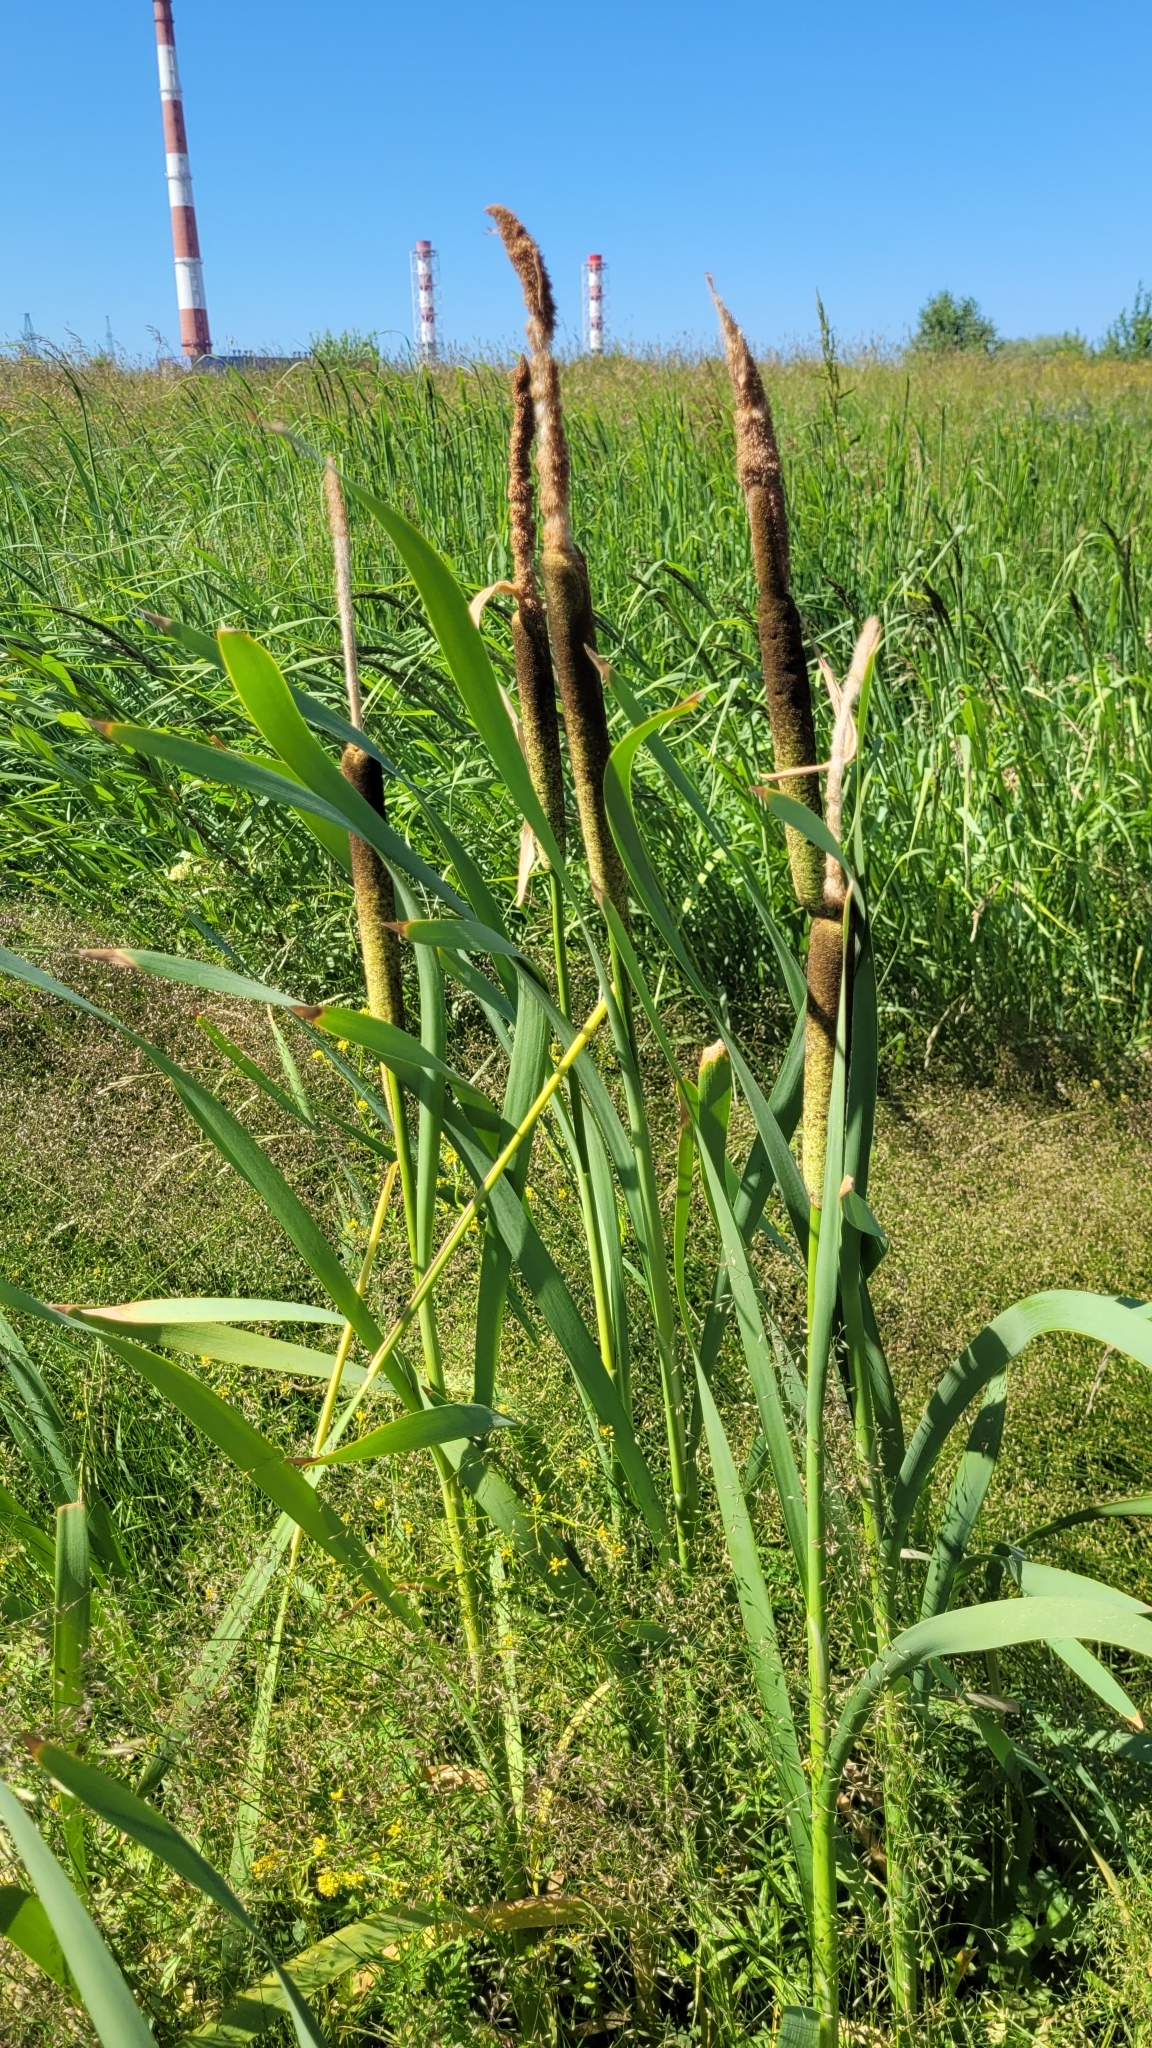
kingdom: Plantae
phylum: Tracheophyta
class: Liliopsida
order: Poales
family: Typhaceae
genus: Typha
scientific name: Typha latifolia
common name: Broadleaf cattail
